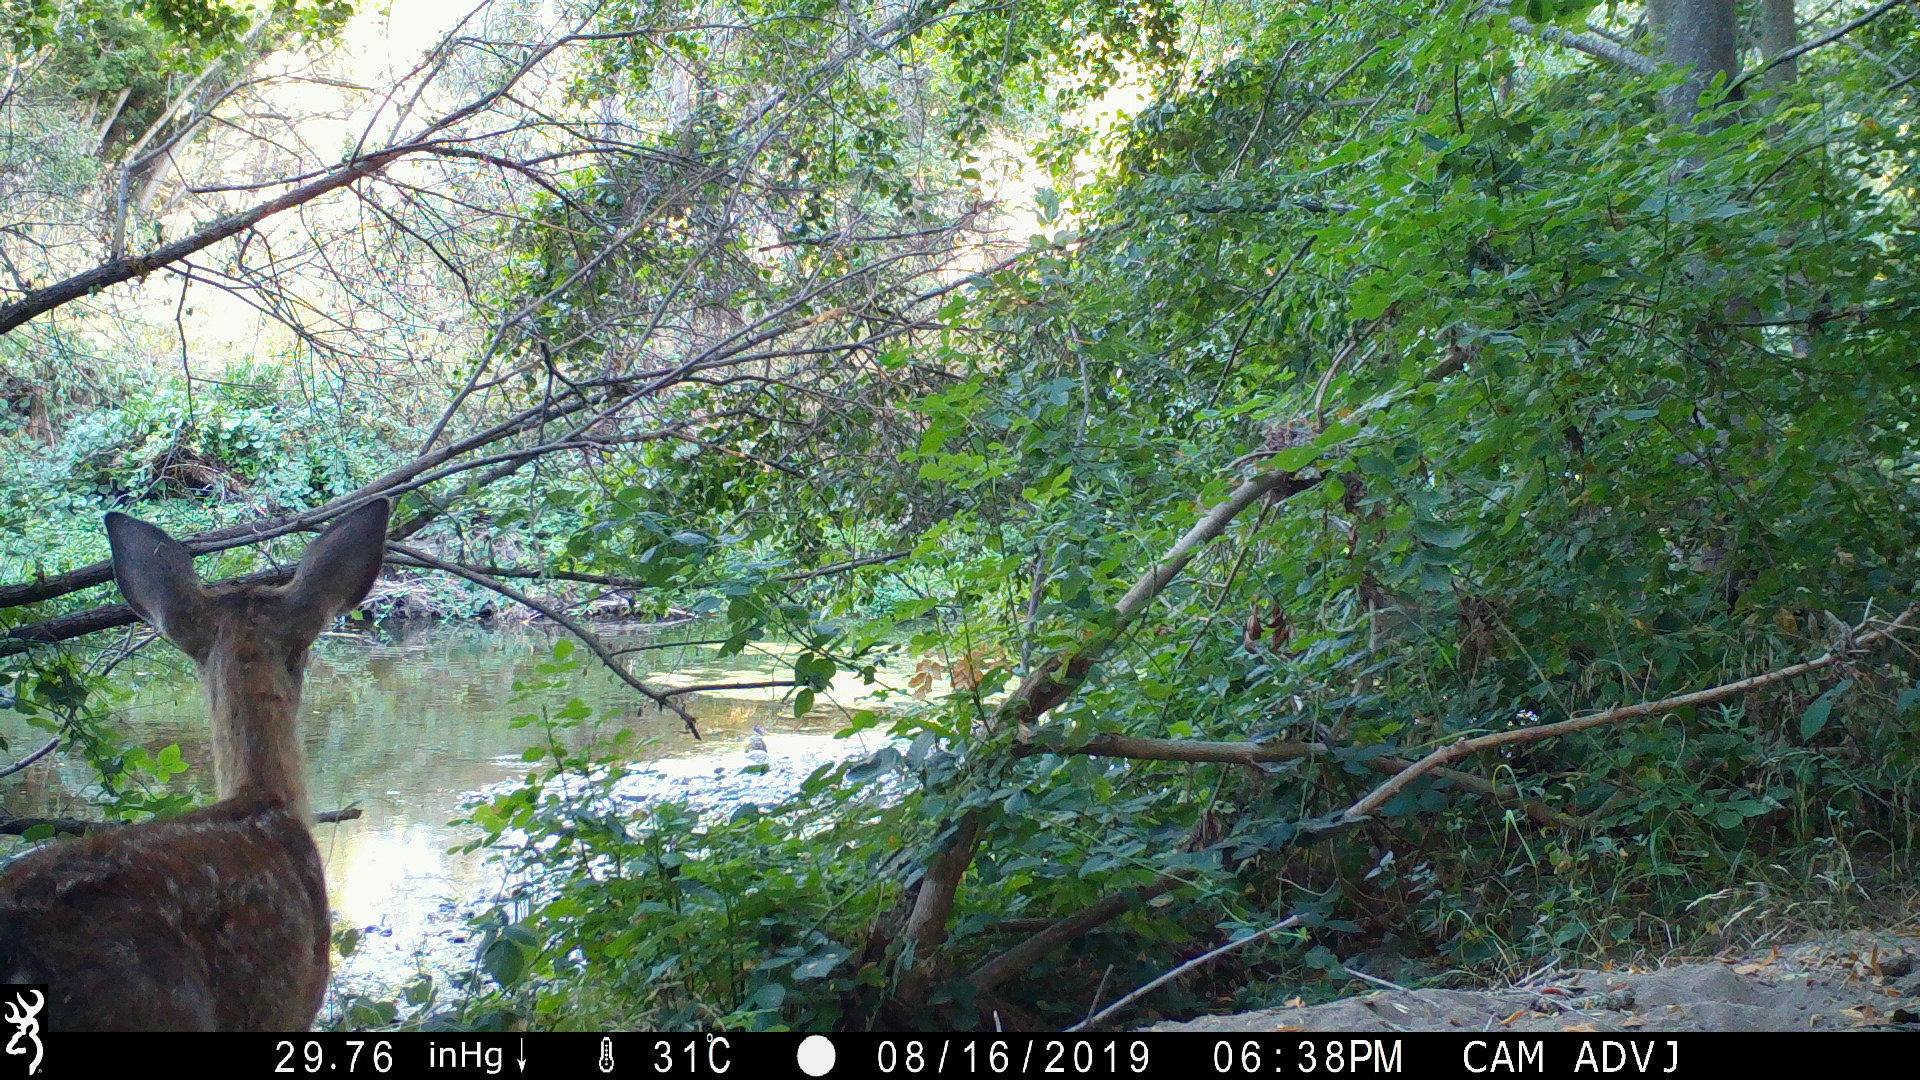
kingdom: Animalia
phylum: Chordata
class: Mammalia
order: Artiodactyla
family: Cervidae
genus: Odocoileus
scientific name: Odocoileus hemionus
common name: Mule deer
